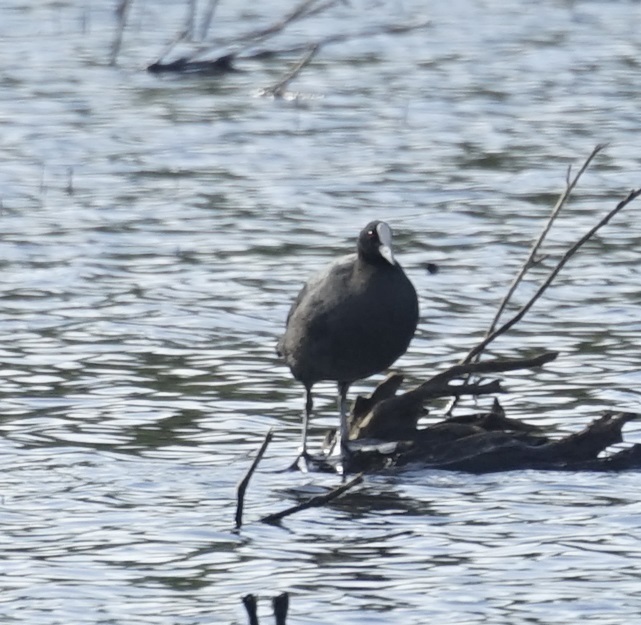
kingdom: Animalia
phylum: Chordata
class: Aves
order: Gruiformes
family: Rallidae
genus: Fulica
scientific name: Fulica atra
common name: Eurasian coot
